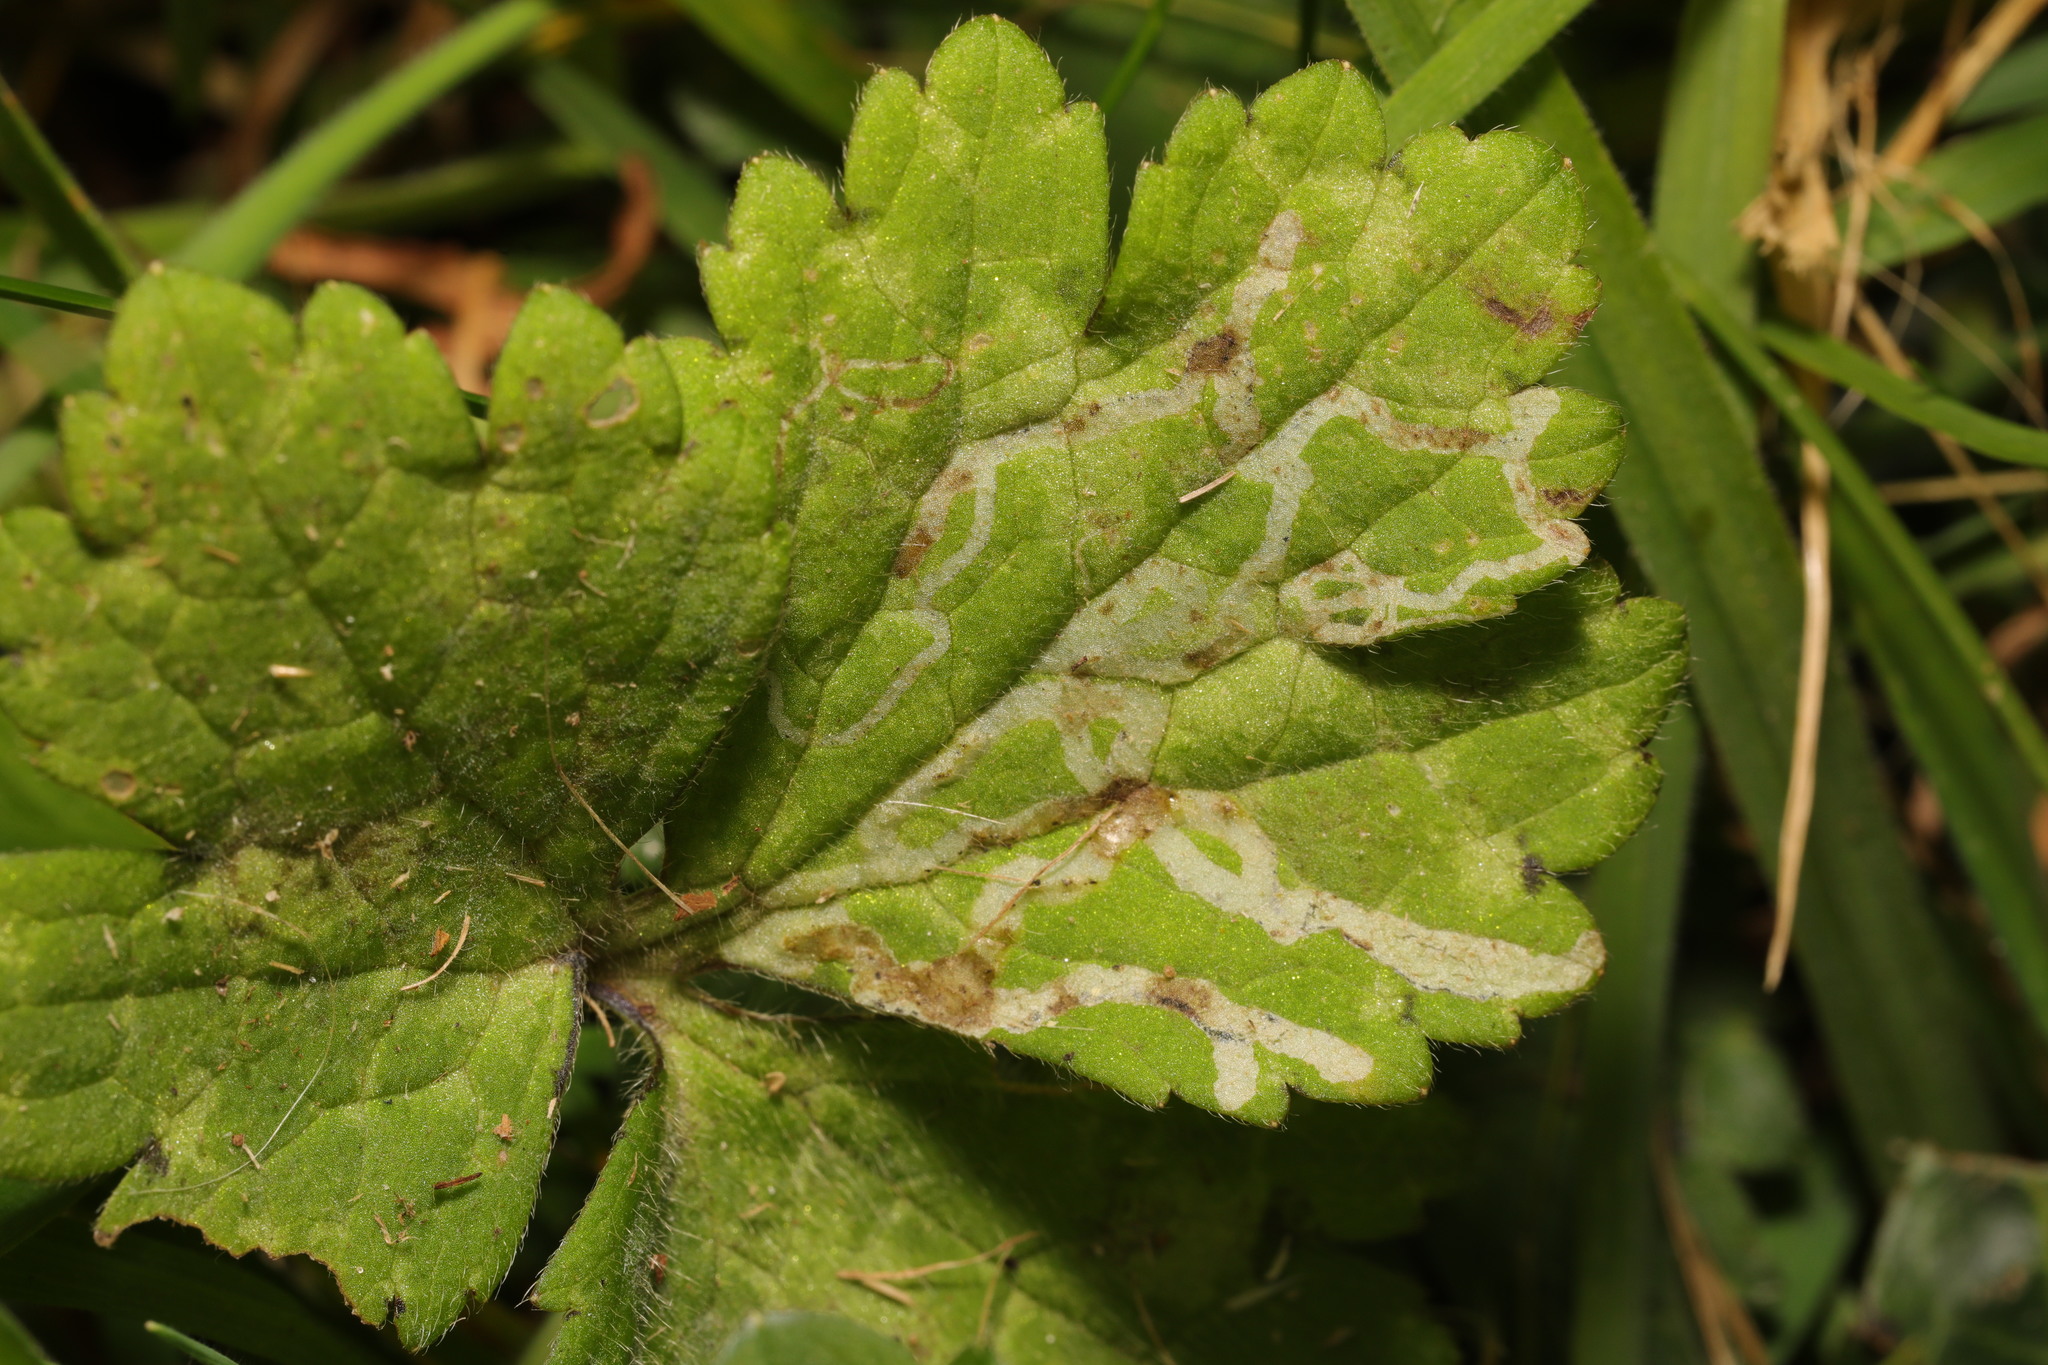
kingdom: Animalia
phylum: Arthropoda
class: Insecta
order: Diptera
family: Agromyzidae
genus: Phytomyza
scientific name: Phytomyza ranunculi
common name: Leaf-miner fly
